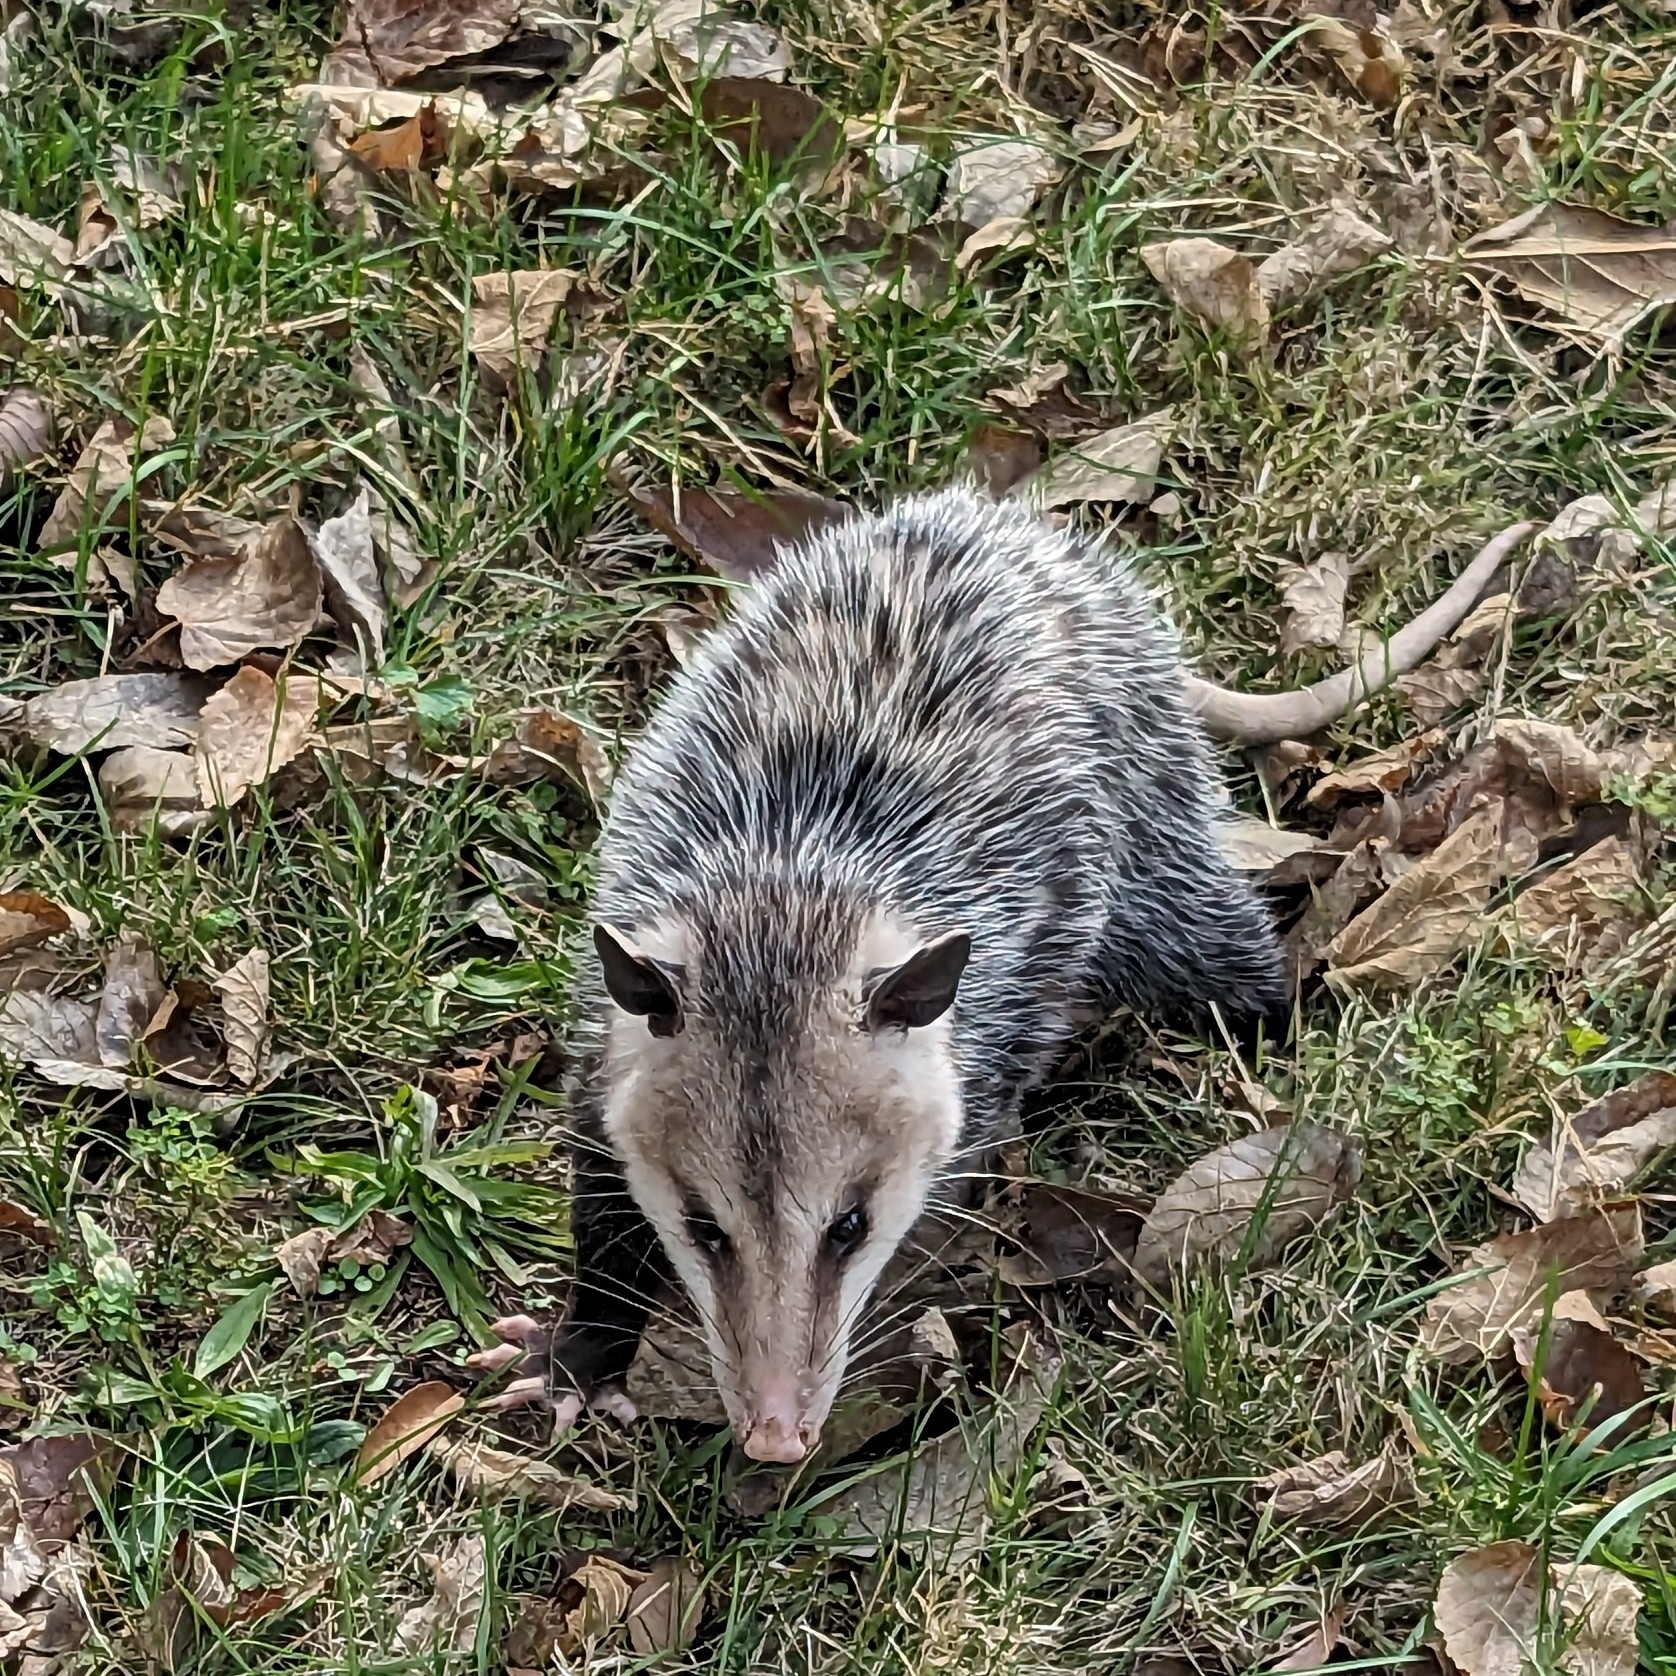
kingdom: Animalia
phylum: Chordata
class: Mammalia
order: Didelphimorphia
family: Didelphidae
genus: Didelphis
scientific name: Didelphis virginiana
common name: Virginia opossum
